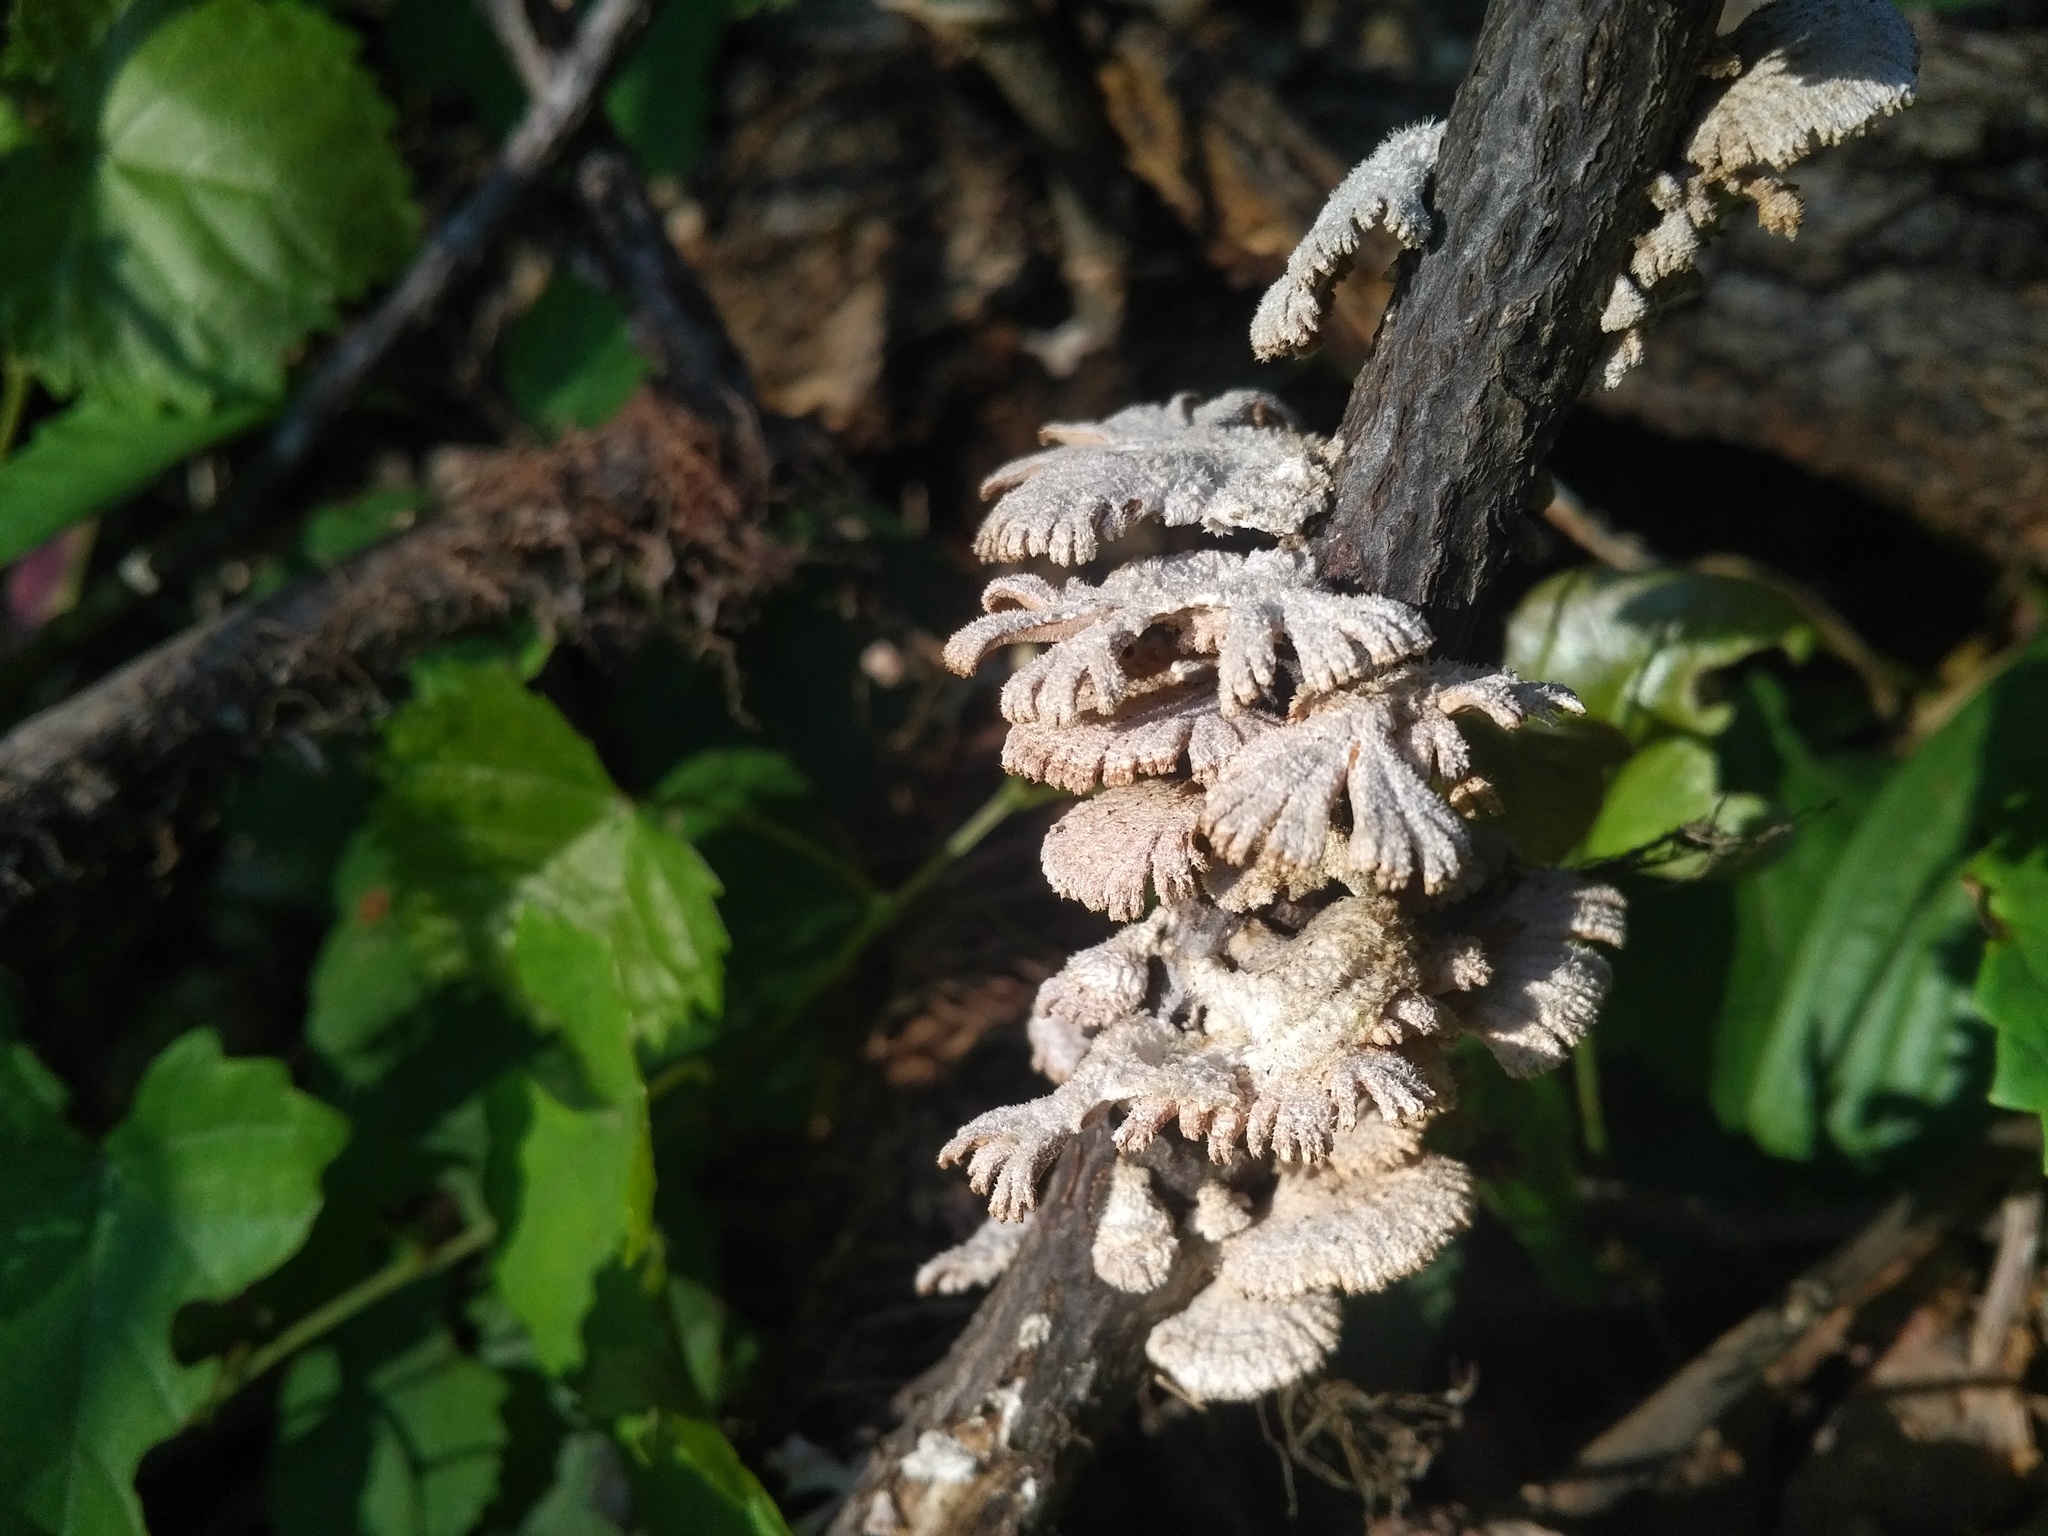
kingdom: Fungi
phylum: Basidiomycota
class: Agaricomycetes
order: Agaricales
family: Schizophyllaceae
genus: Schizophyllum
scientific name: Schizophyllum commune
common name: Common porecrust
